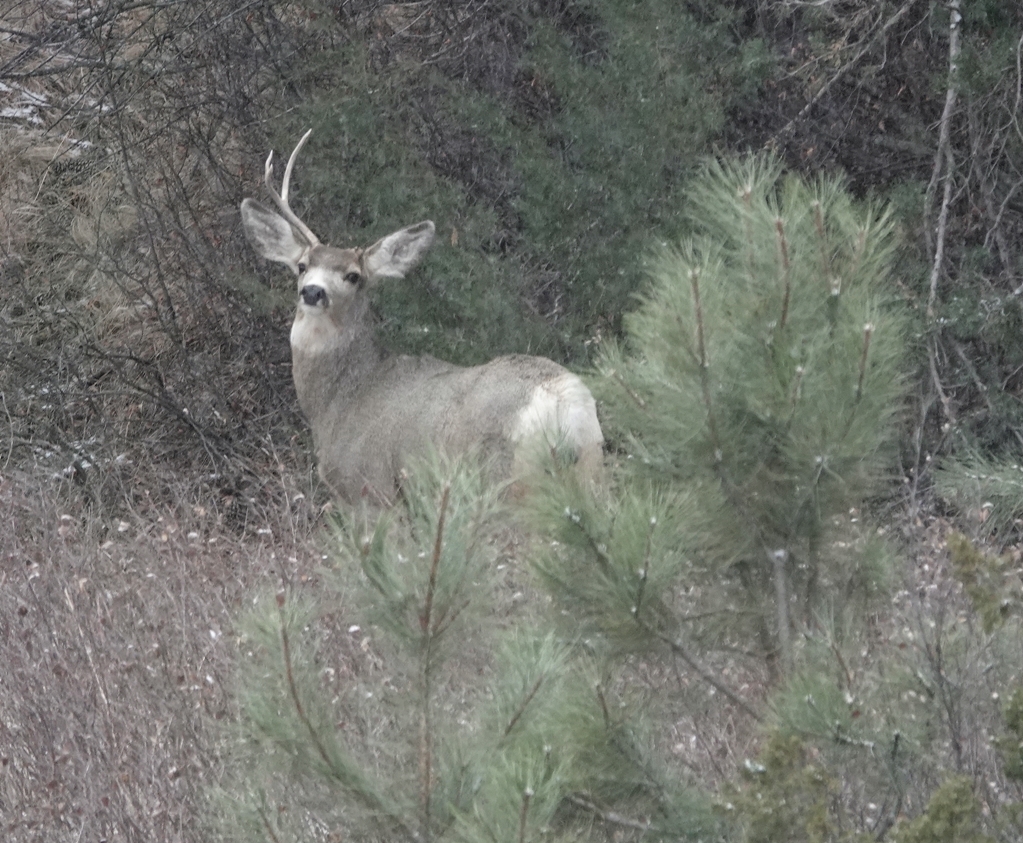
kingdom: Animalia
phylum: Chordata
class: Mammalia
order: Artiodactyla
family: Cervidae
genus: Odocoileus
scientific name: Odocoileus hemionus
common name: Mule deer
